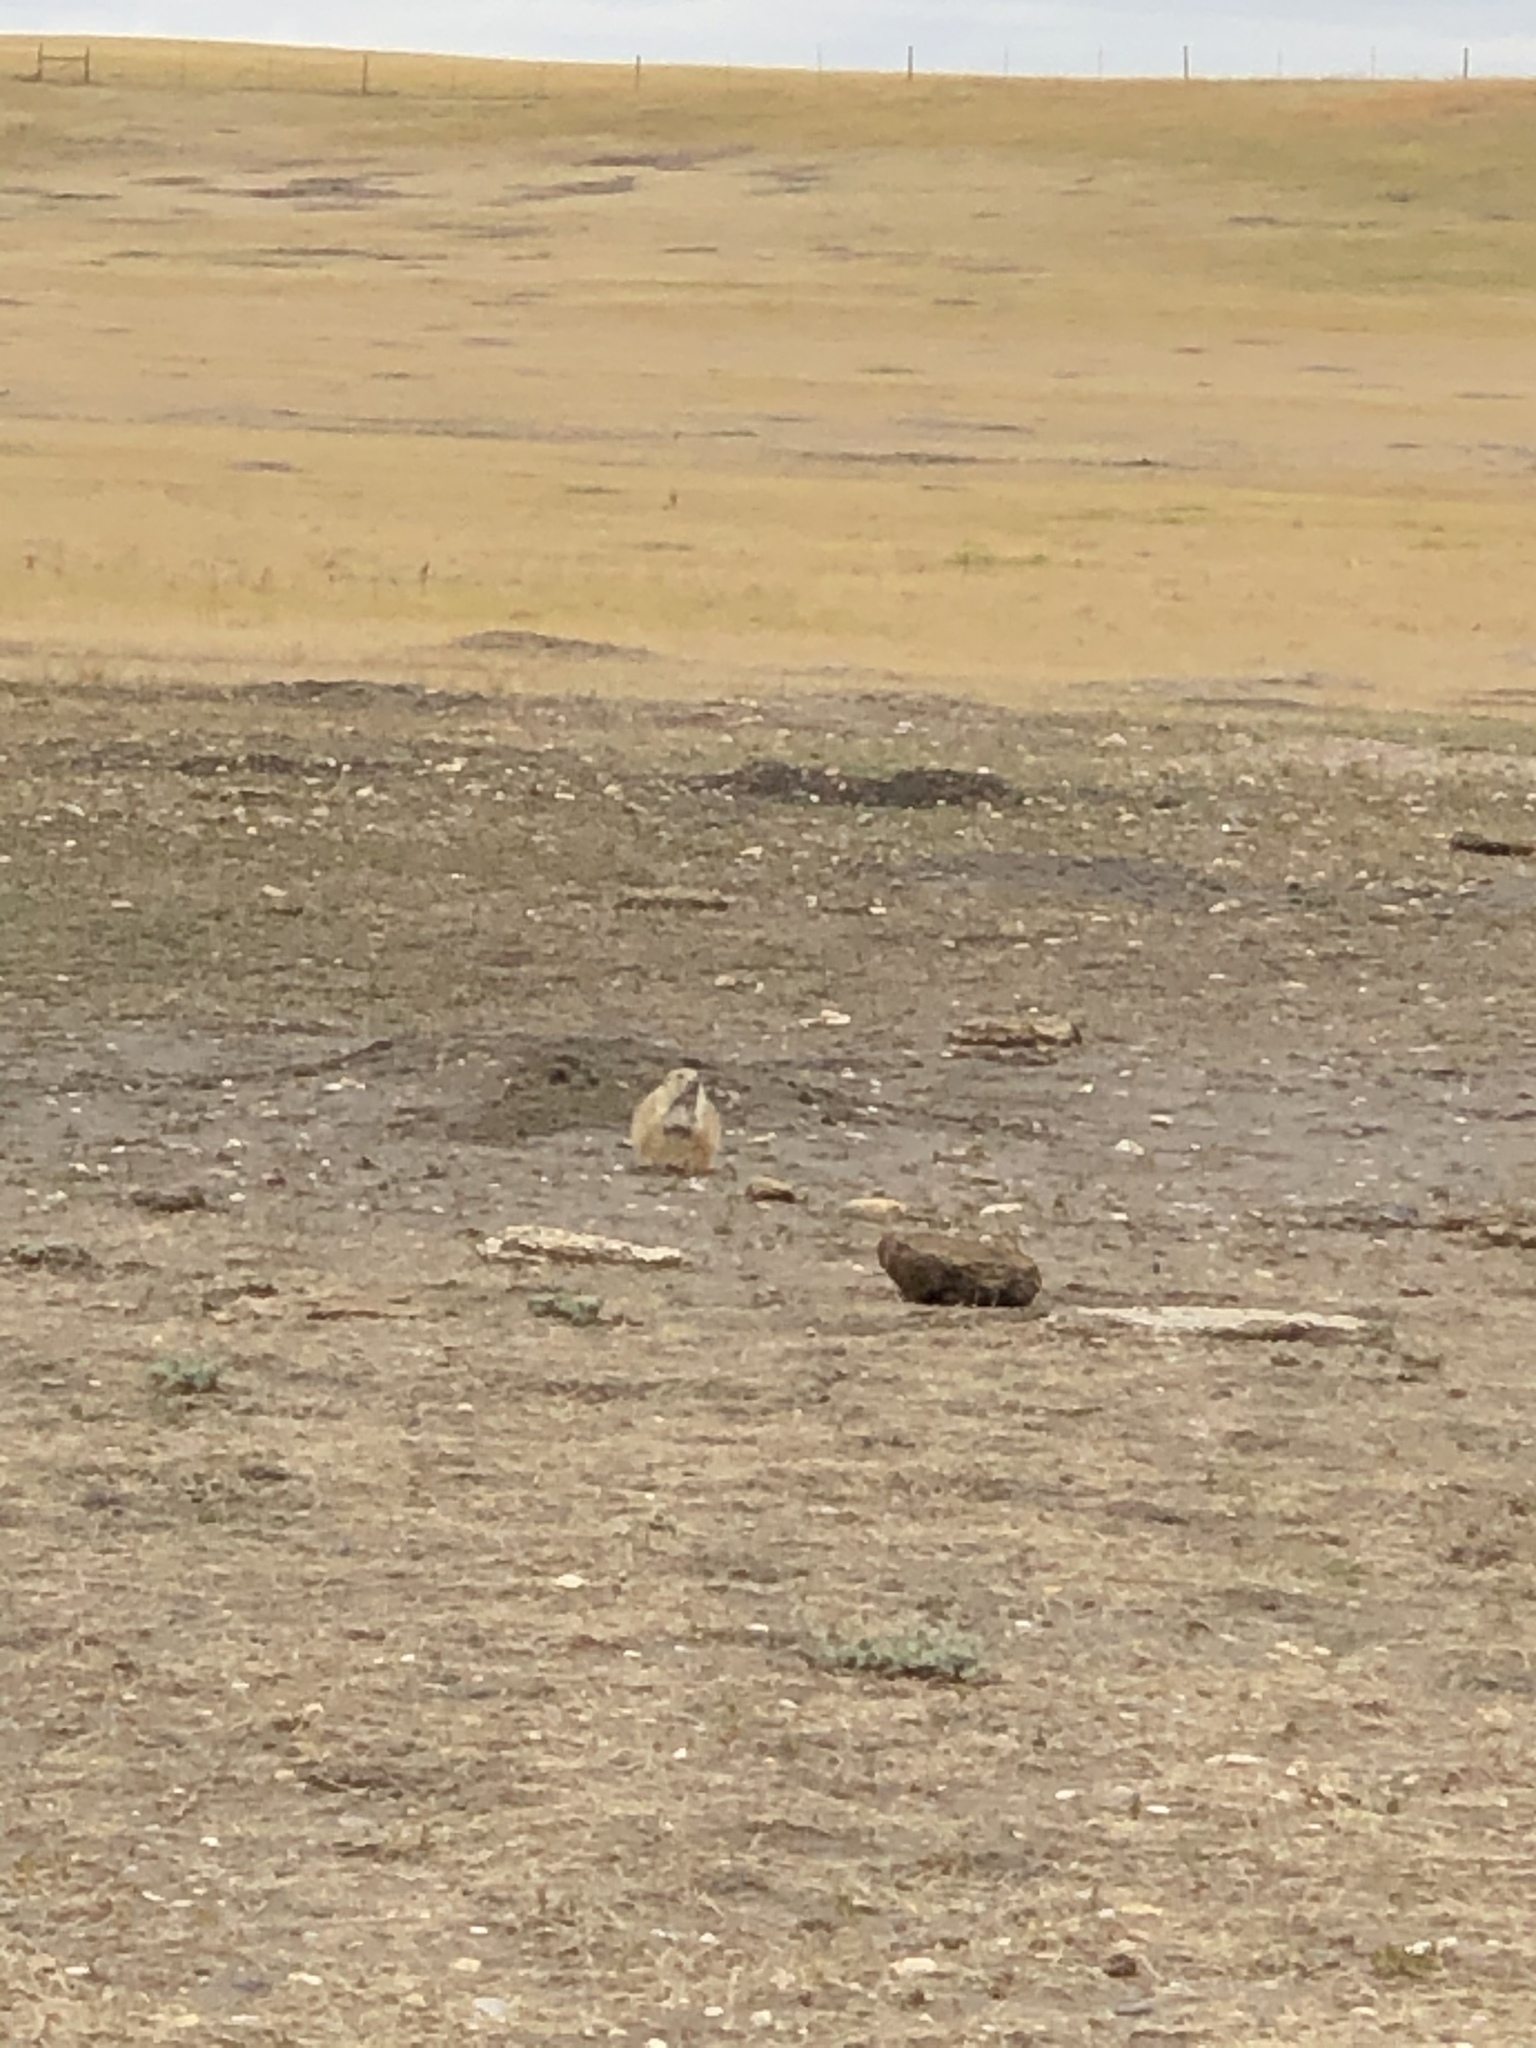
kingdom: Animalia
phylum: Chordata
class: Mammalia
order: Rodentia
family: Sciuridae
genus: Cynomys
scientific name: Cynomys ludovicianus
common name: Black-tailed prairie dog
